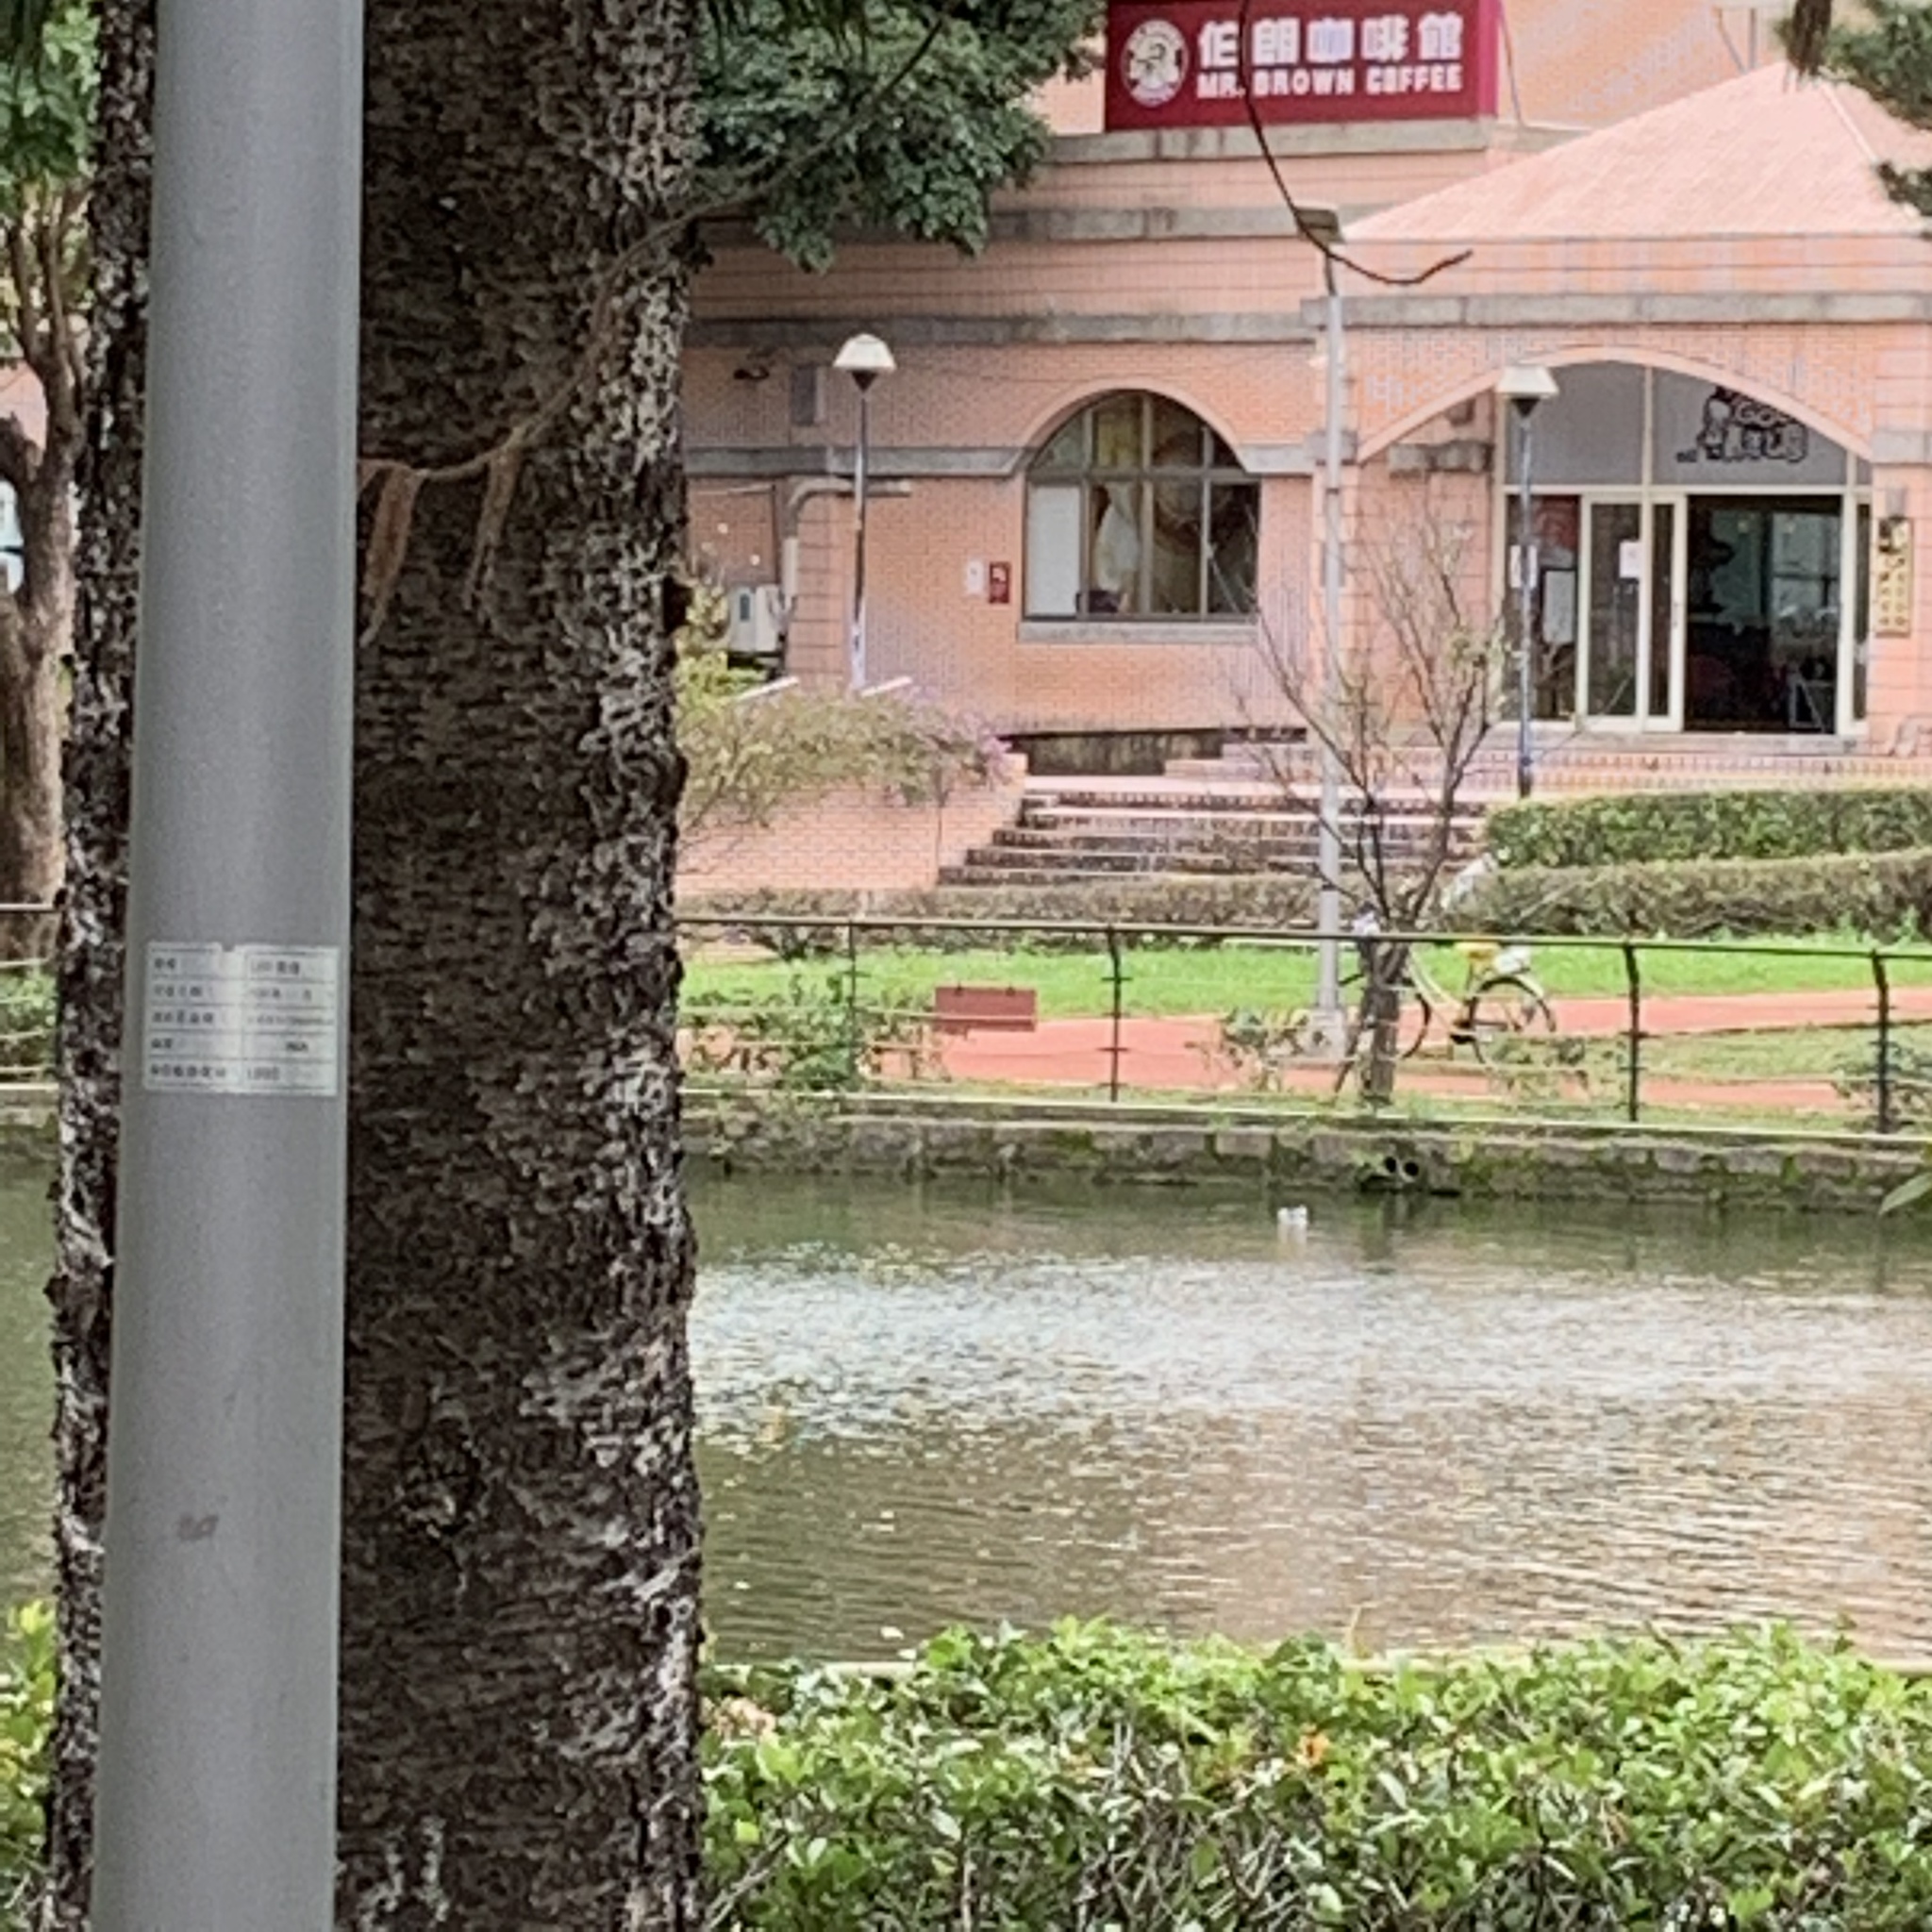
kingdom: Animalia
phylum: Chordata
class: Aves
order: Pelecaniformes
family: Ardeidae
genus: Nycticorax
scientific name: Nycticorax nycticorax
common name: Black-crowned night heron
